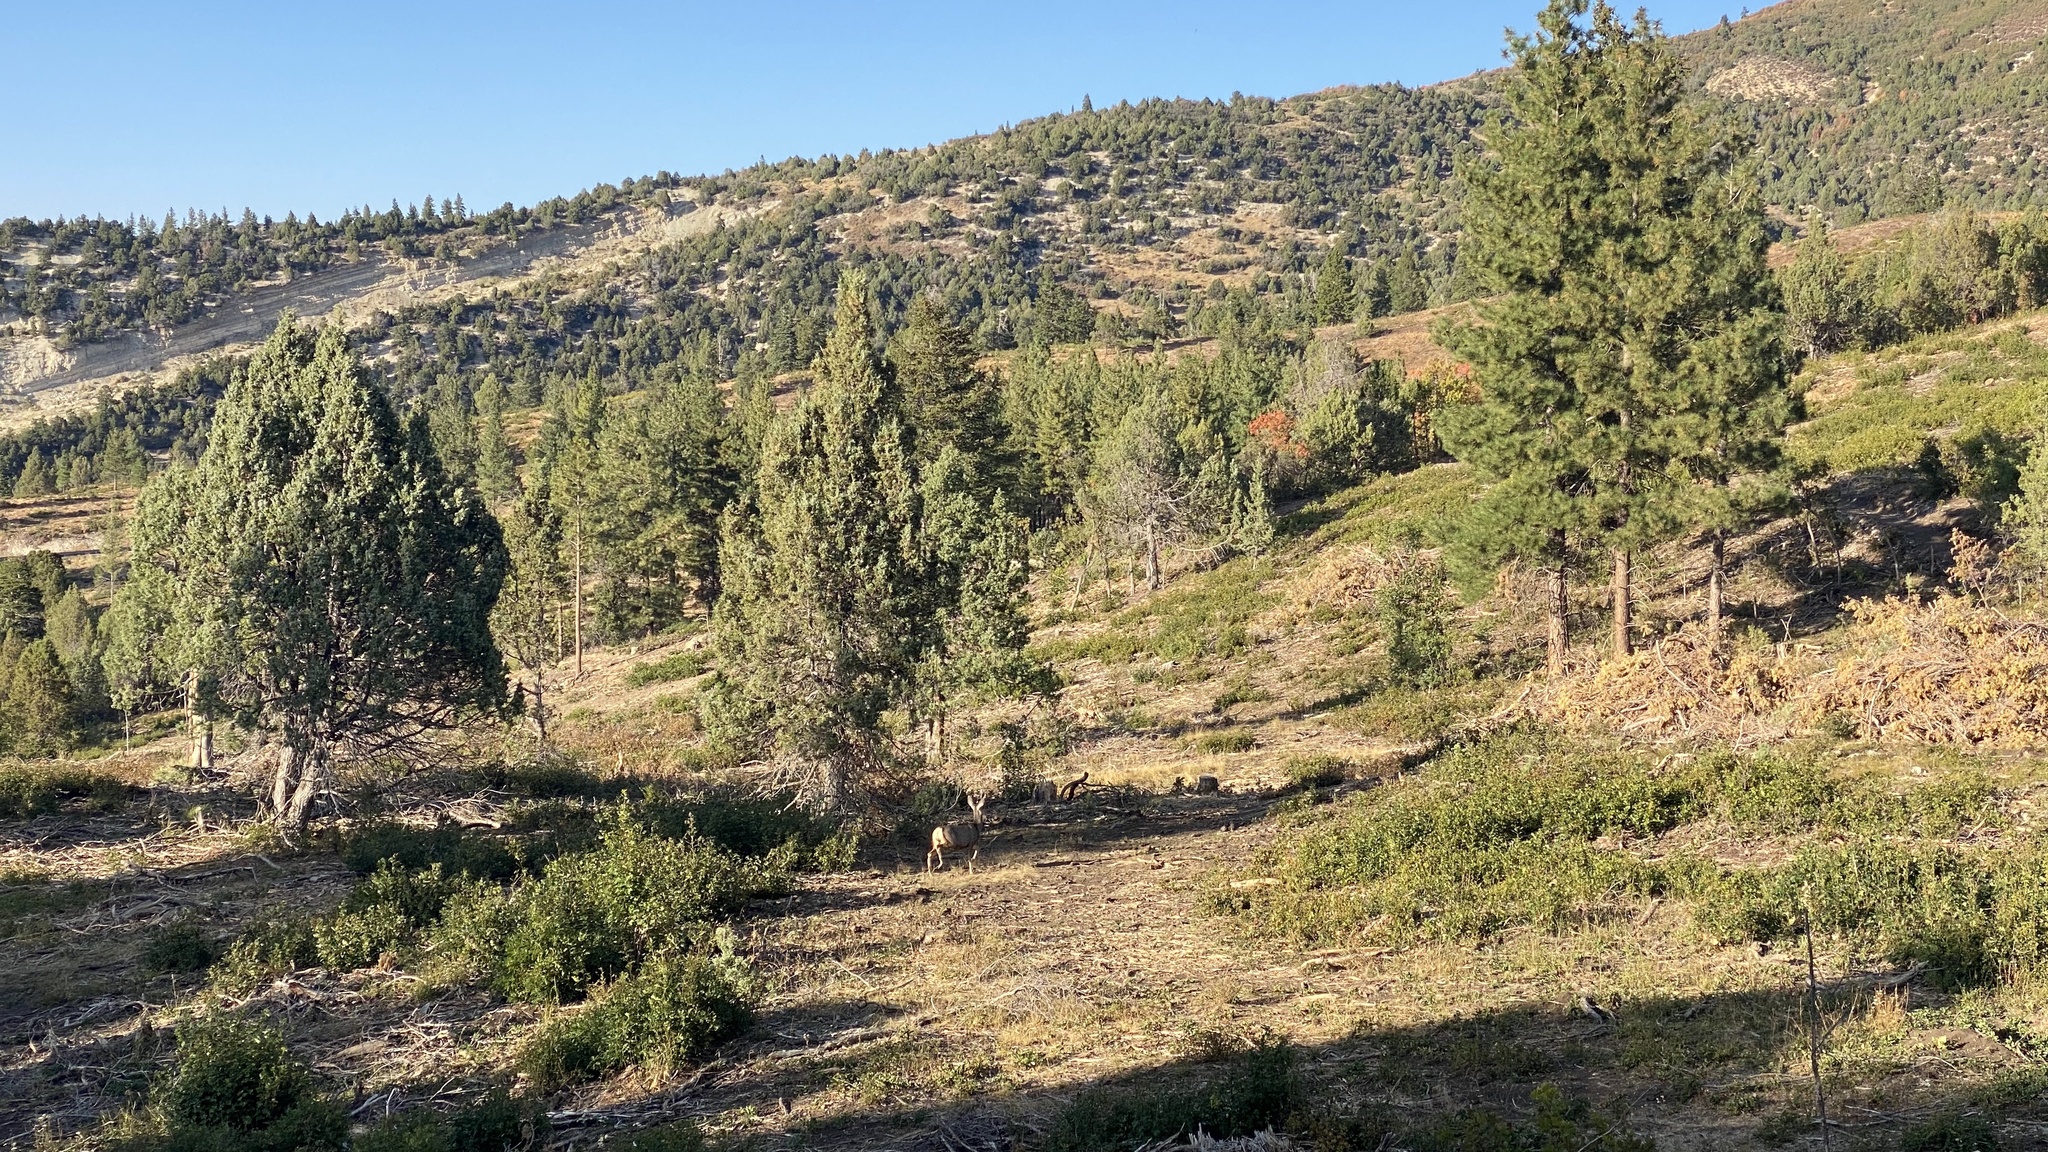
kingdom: Animalia
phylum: Chordata
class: Mammalia
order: Artiodactyla
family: Cervidae
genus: Odocoileus
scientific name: Odocoileus hemionus
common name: Mule deer
